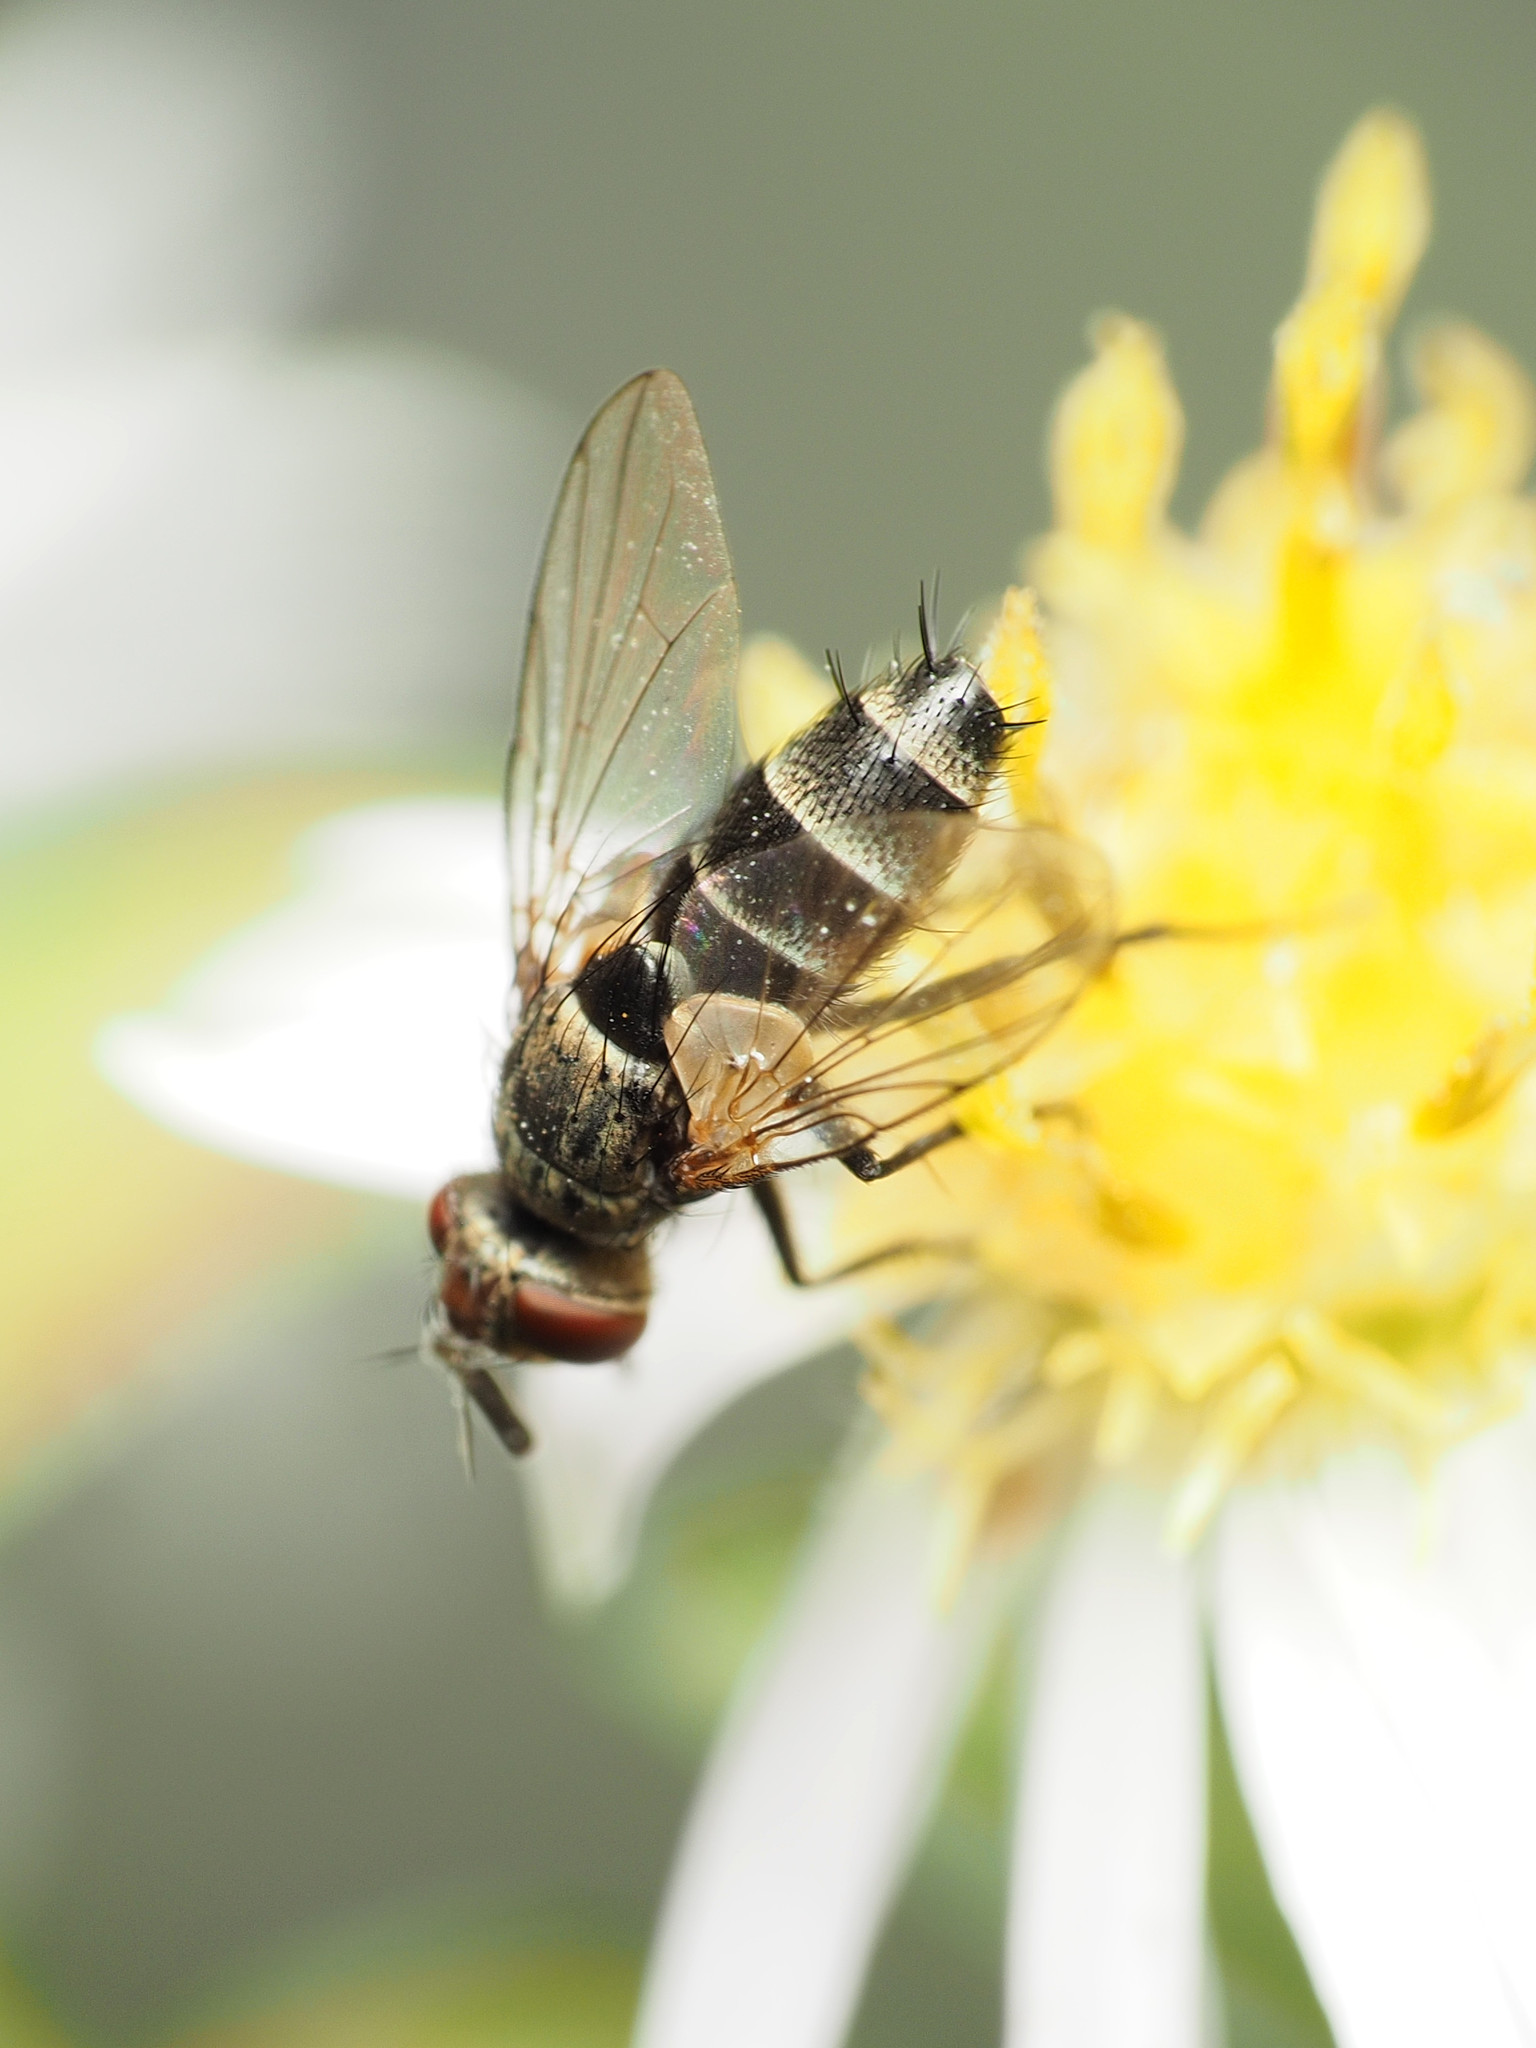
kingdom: Animalia
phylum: Arthropoda
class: Insecta
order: Diptera
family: Tachinidae
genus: Clausicella
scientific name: Clausicella turmalis
